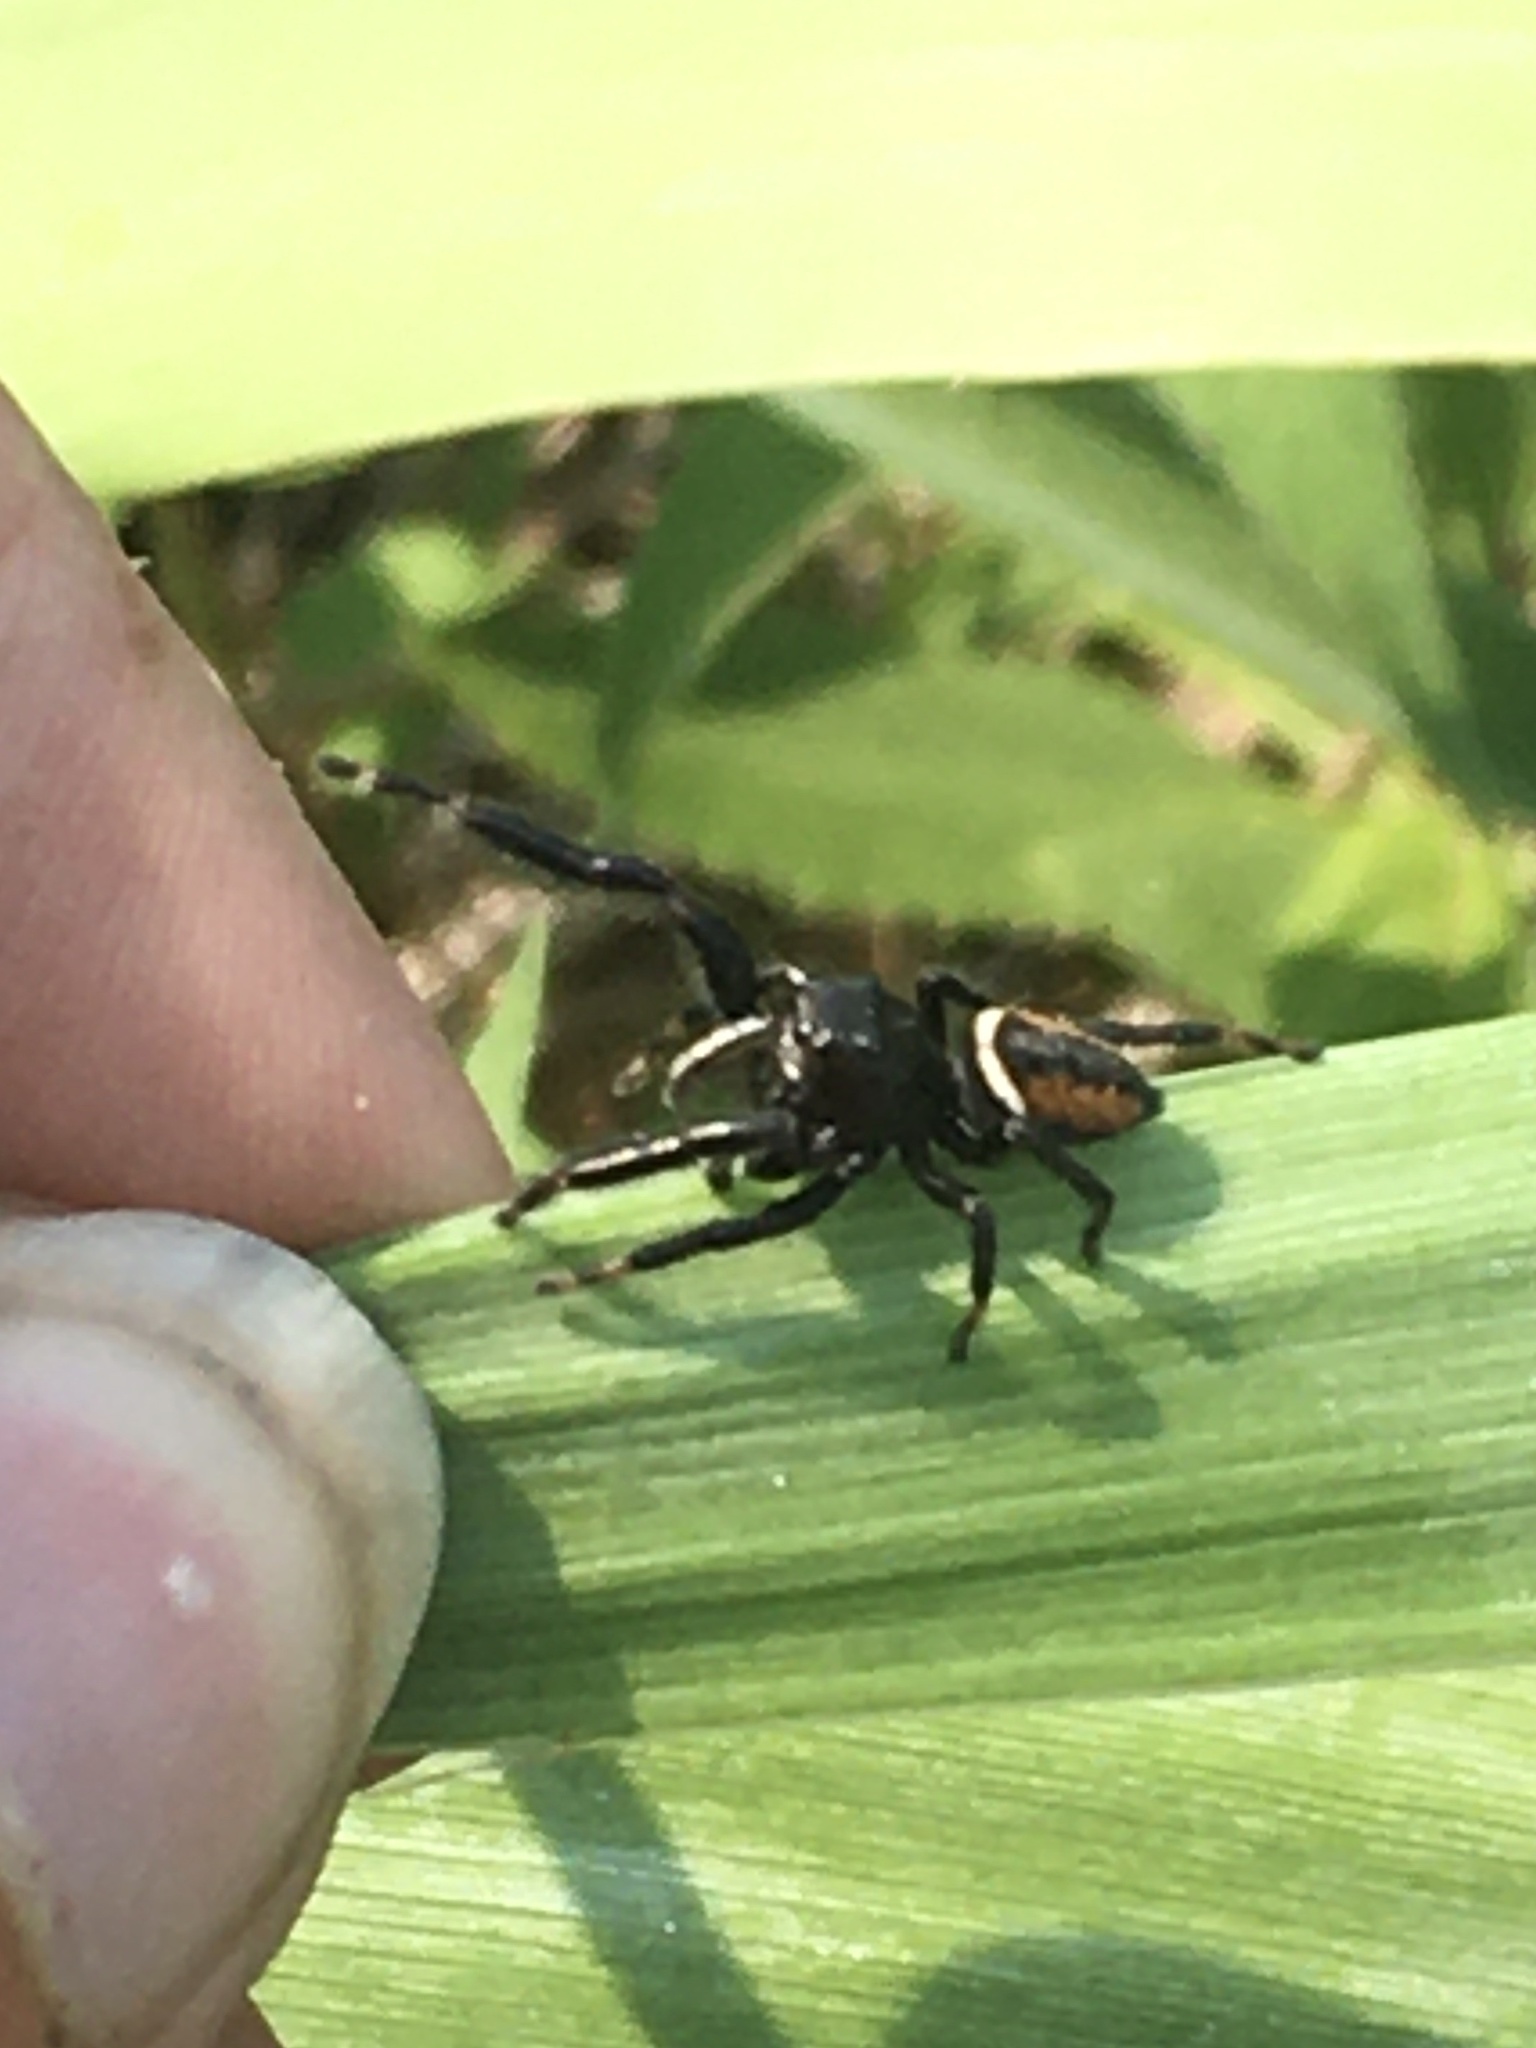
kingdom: Animalia
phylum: Arthropoda
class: Arachnida
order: Araneae
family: Salticidae
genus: Phidippus
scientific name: Phidippus clarus
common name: Brilliant jumping spider
